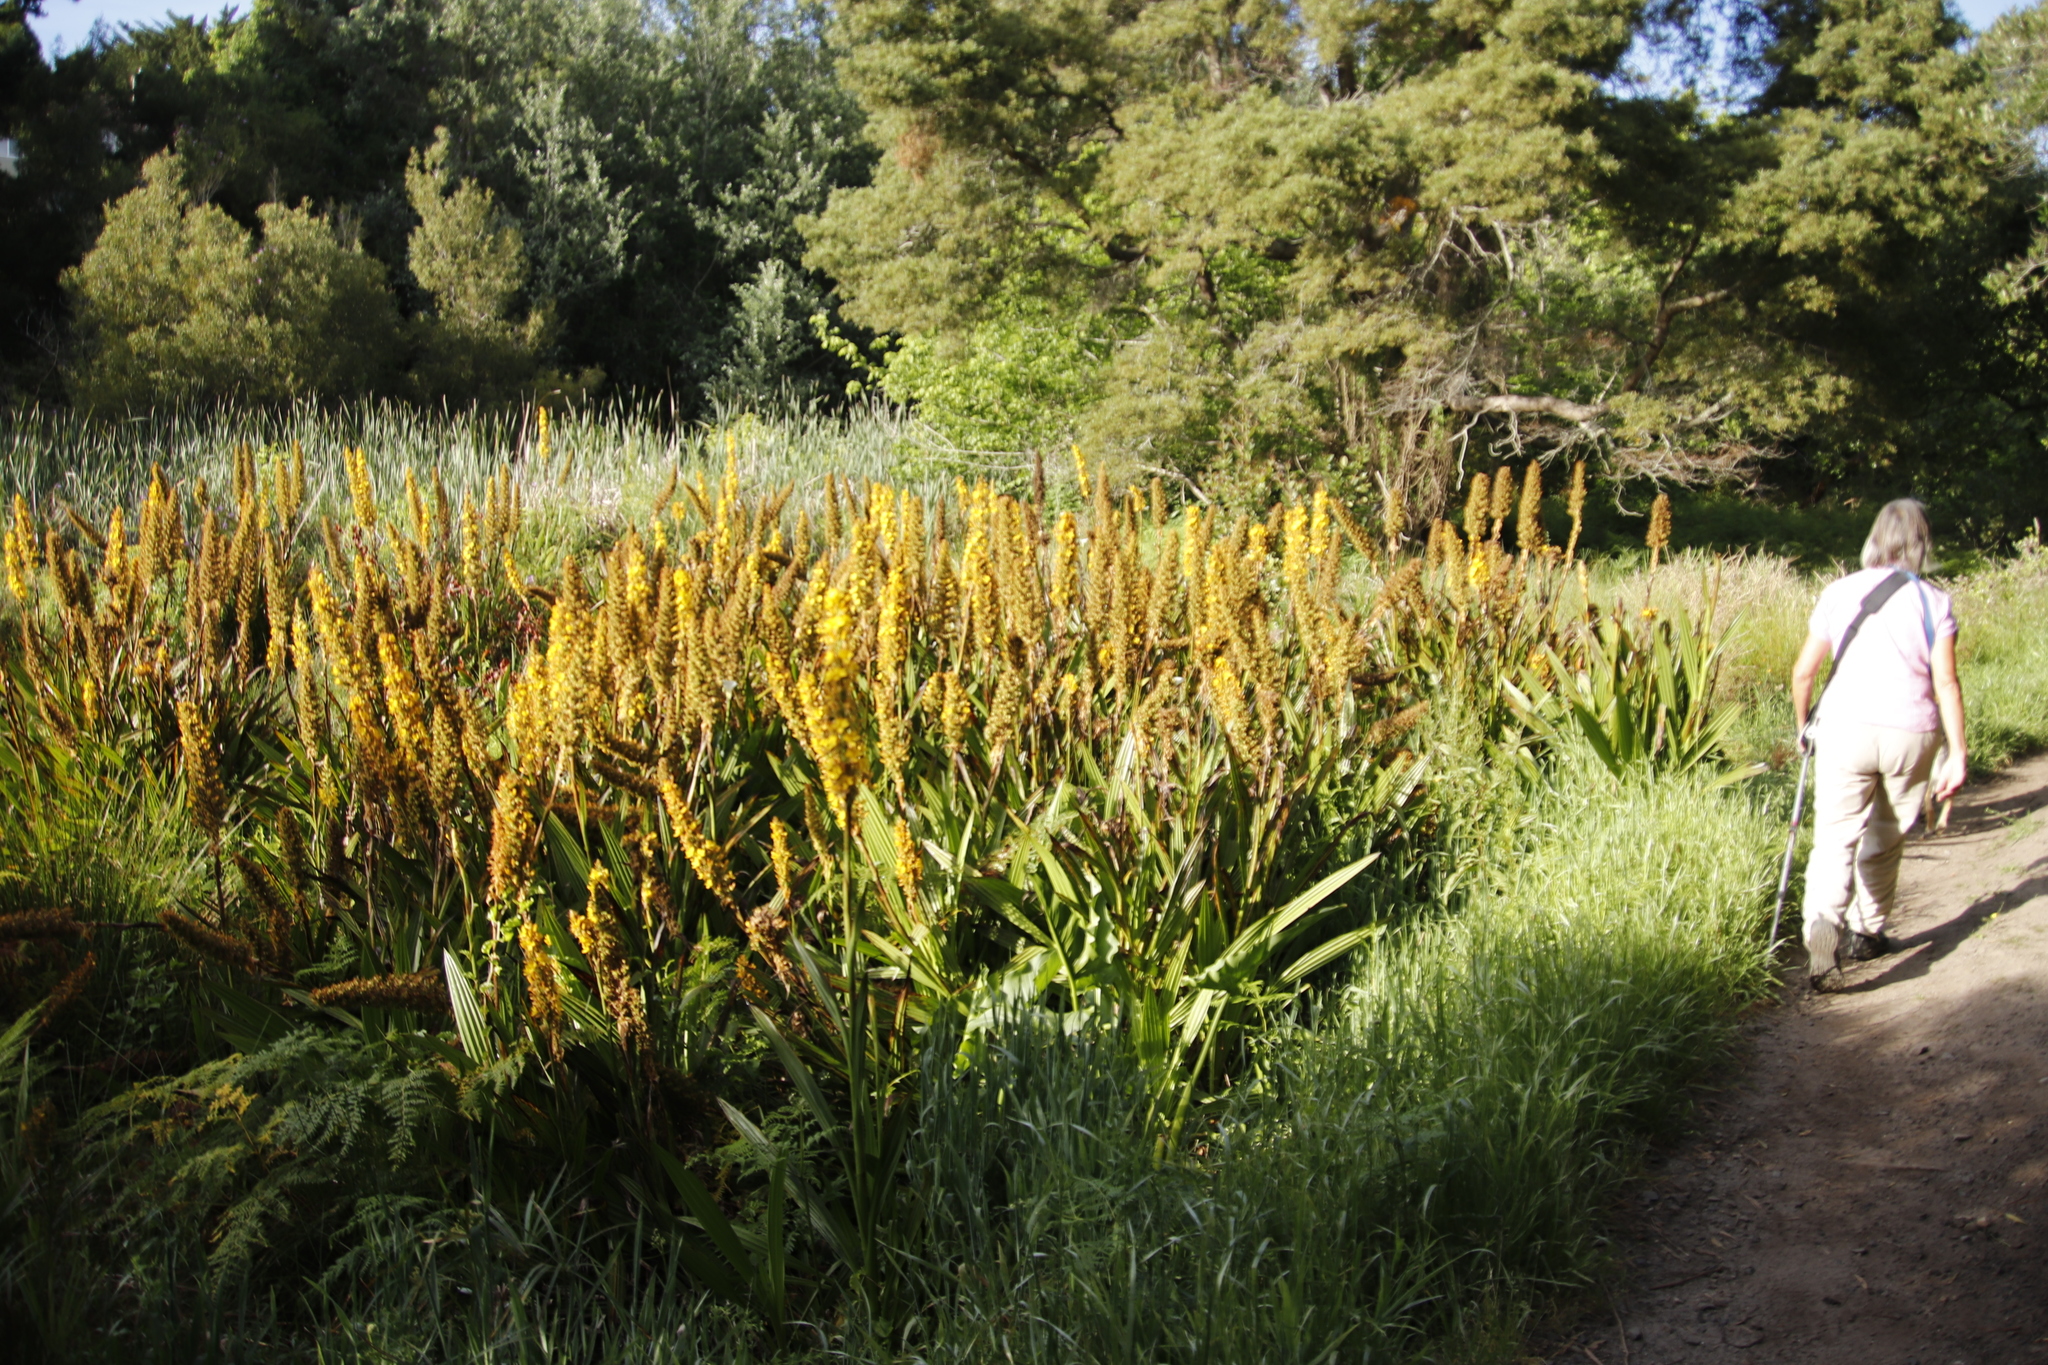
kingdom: Plantae
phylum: Tracheophyta
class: Liliopsida
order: Commelinales
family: Haemodoraceae
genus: Wachendorfia
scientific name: Wachendorfia thyrsiflora
